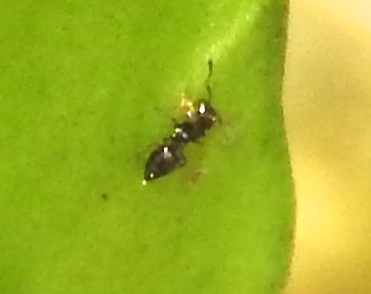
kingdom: Animalia
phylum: Arthropoda
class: Insecta
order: Hymenoptera
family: Formicidae
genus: Crematogaster
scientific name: Crematogaster
